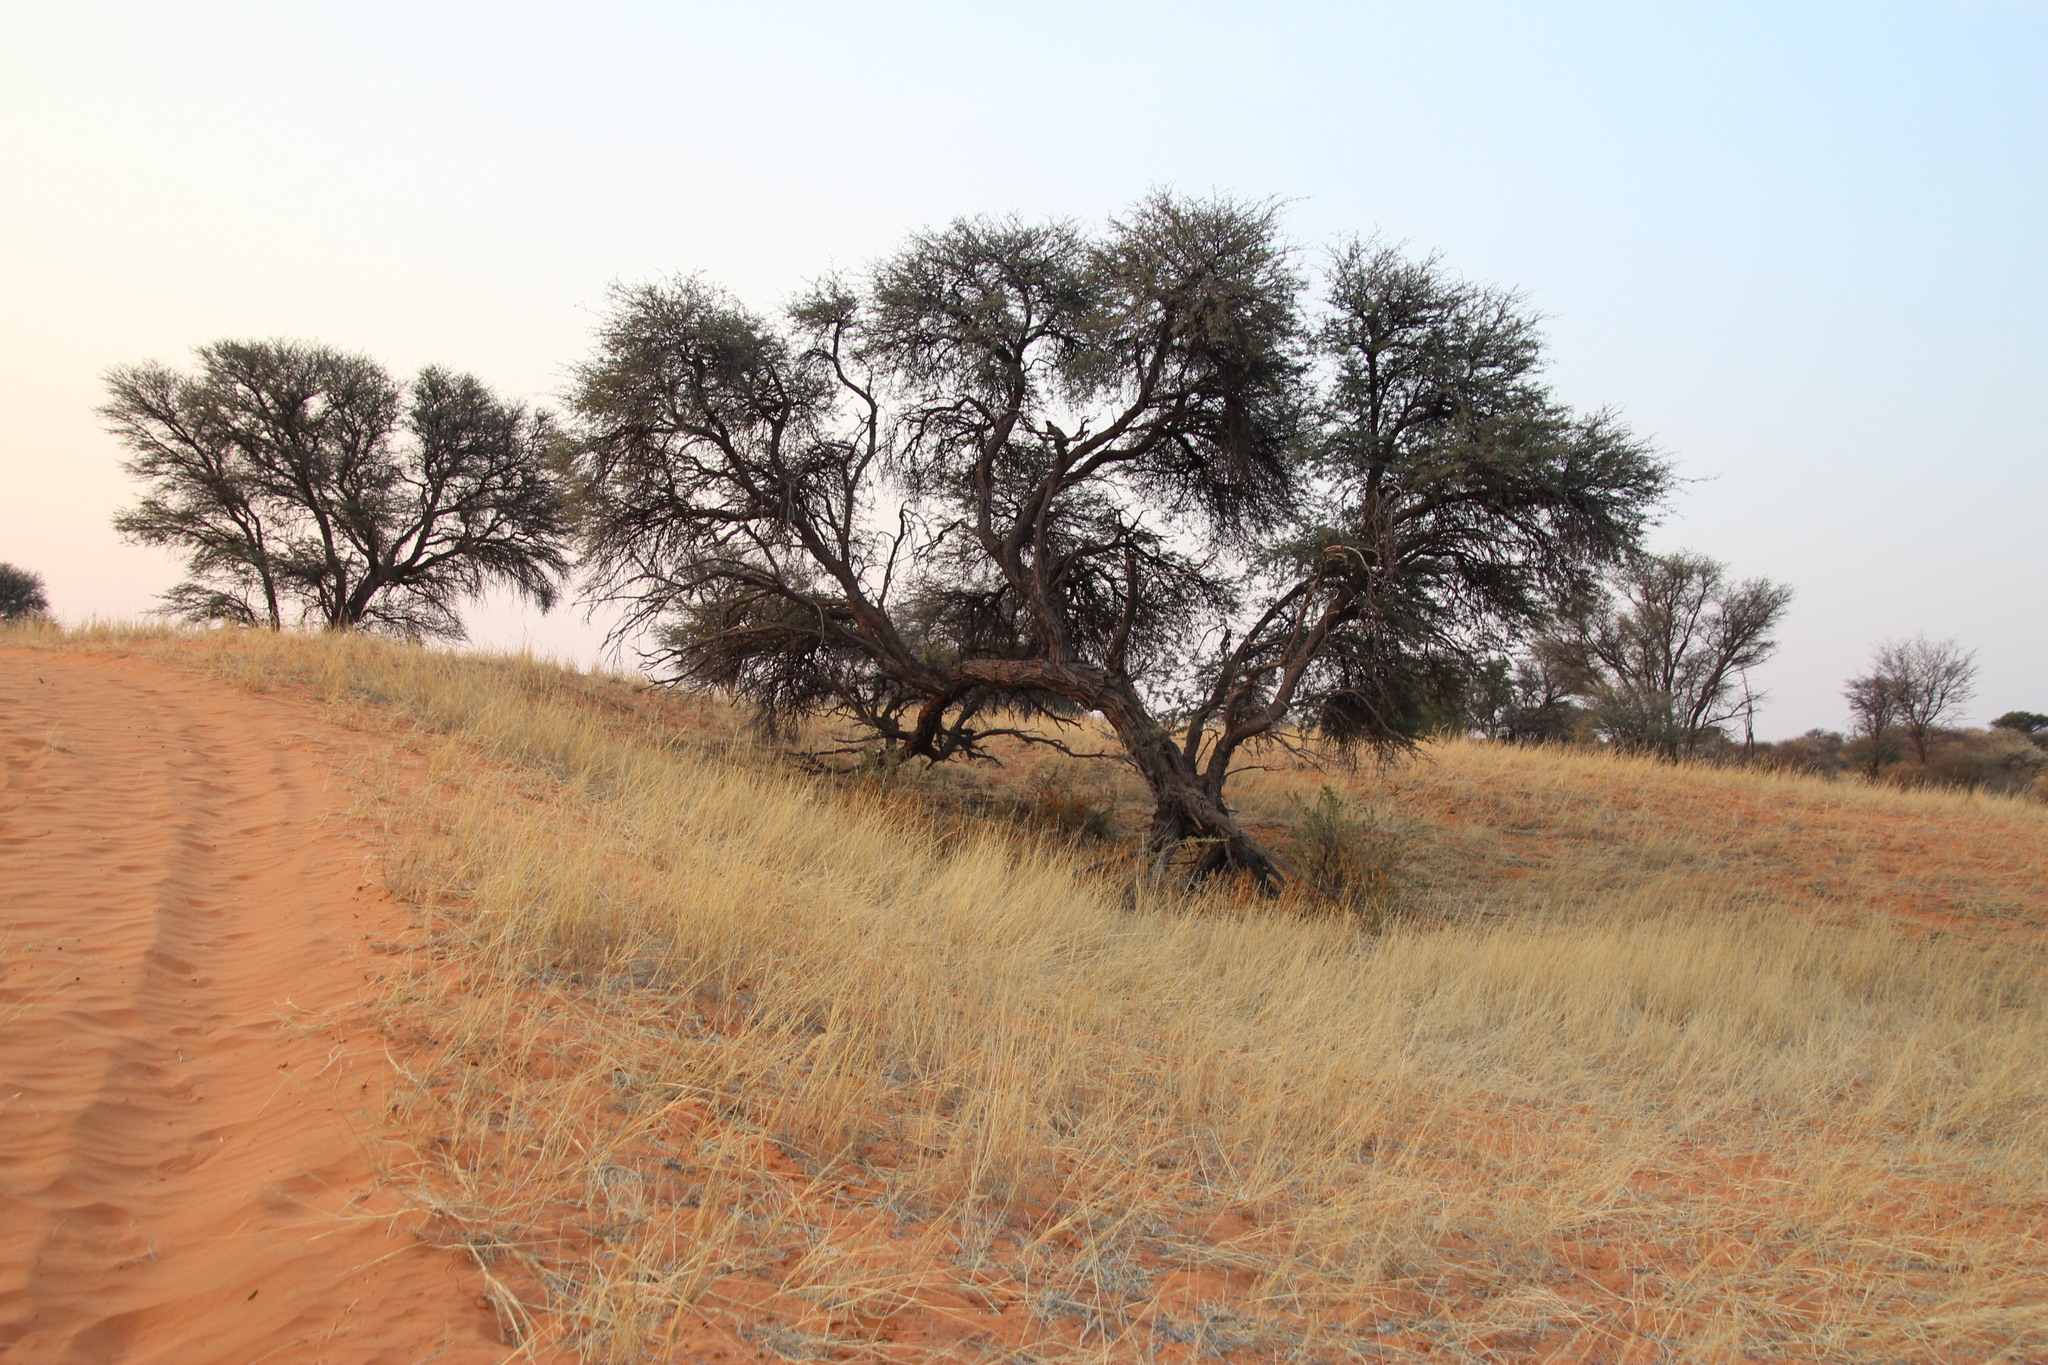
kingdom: Plantae
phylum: Tracheophyta
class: Magnoliopsida
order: Fabales
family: Fabaceae
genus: Vachellia
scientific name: Vachellia erioloba
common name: Camel thorn
